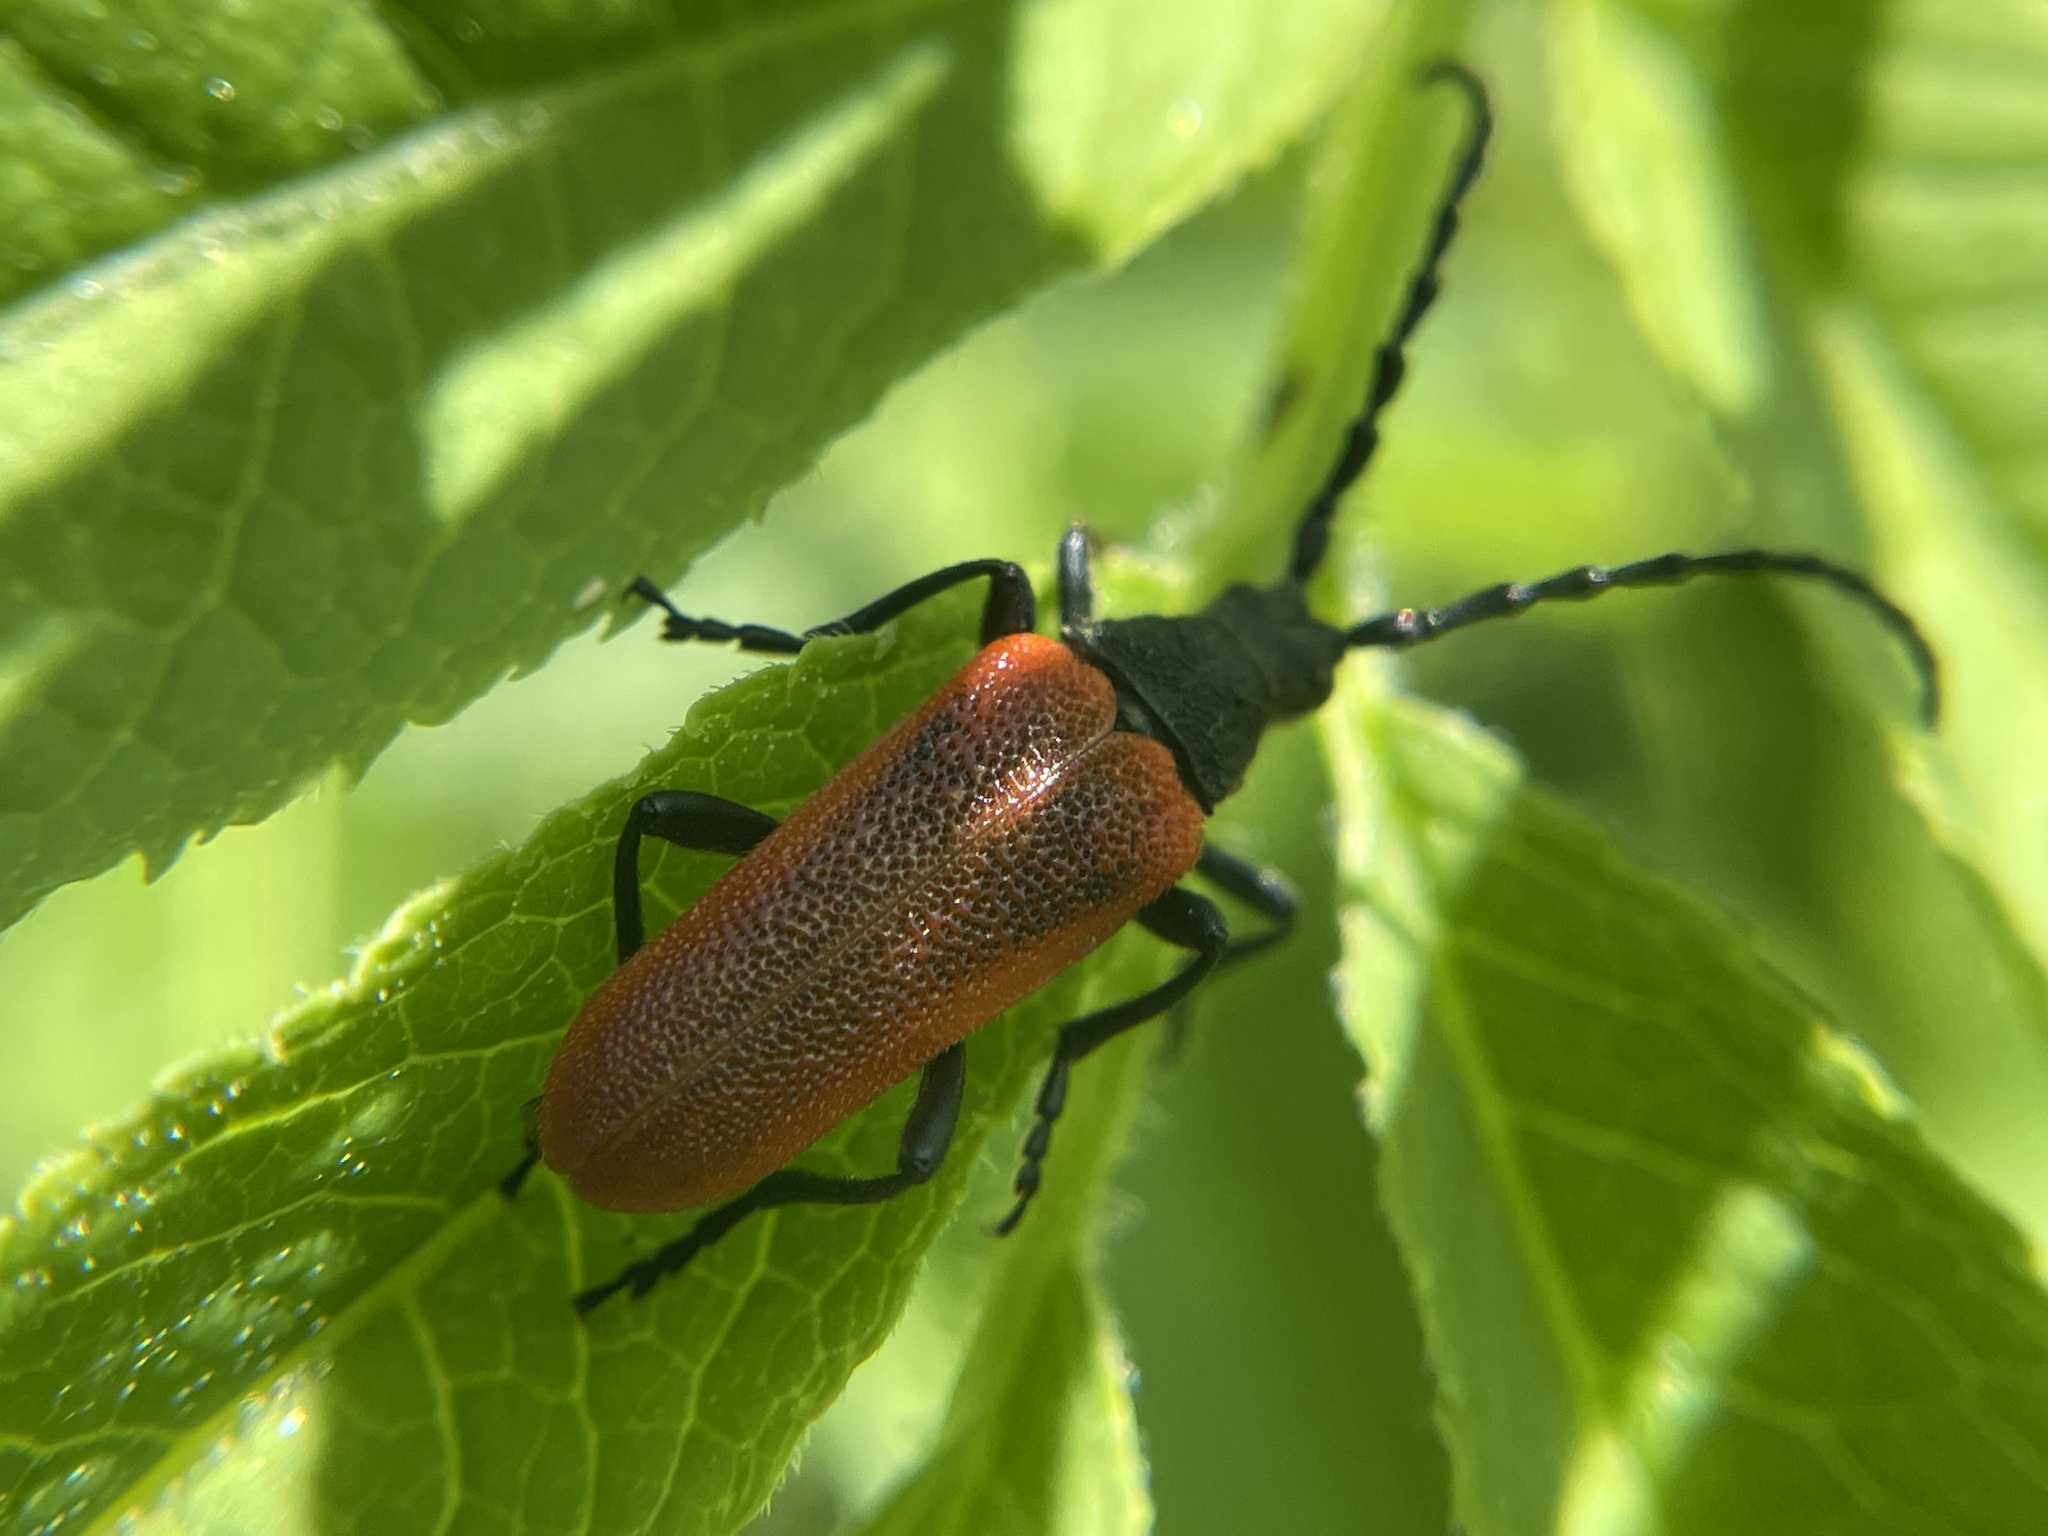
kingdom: Animalia
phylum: Arthropoda
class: Insecta
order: Coleoptera
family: Cerambycidae
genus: Desmocerus
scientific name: Desmocerus aureipennis
